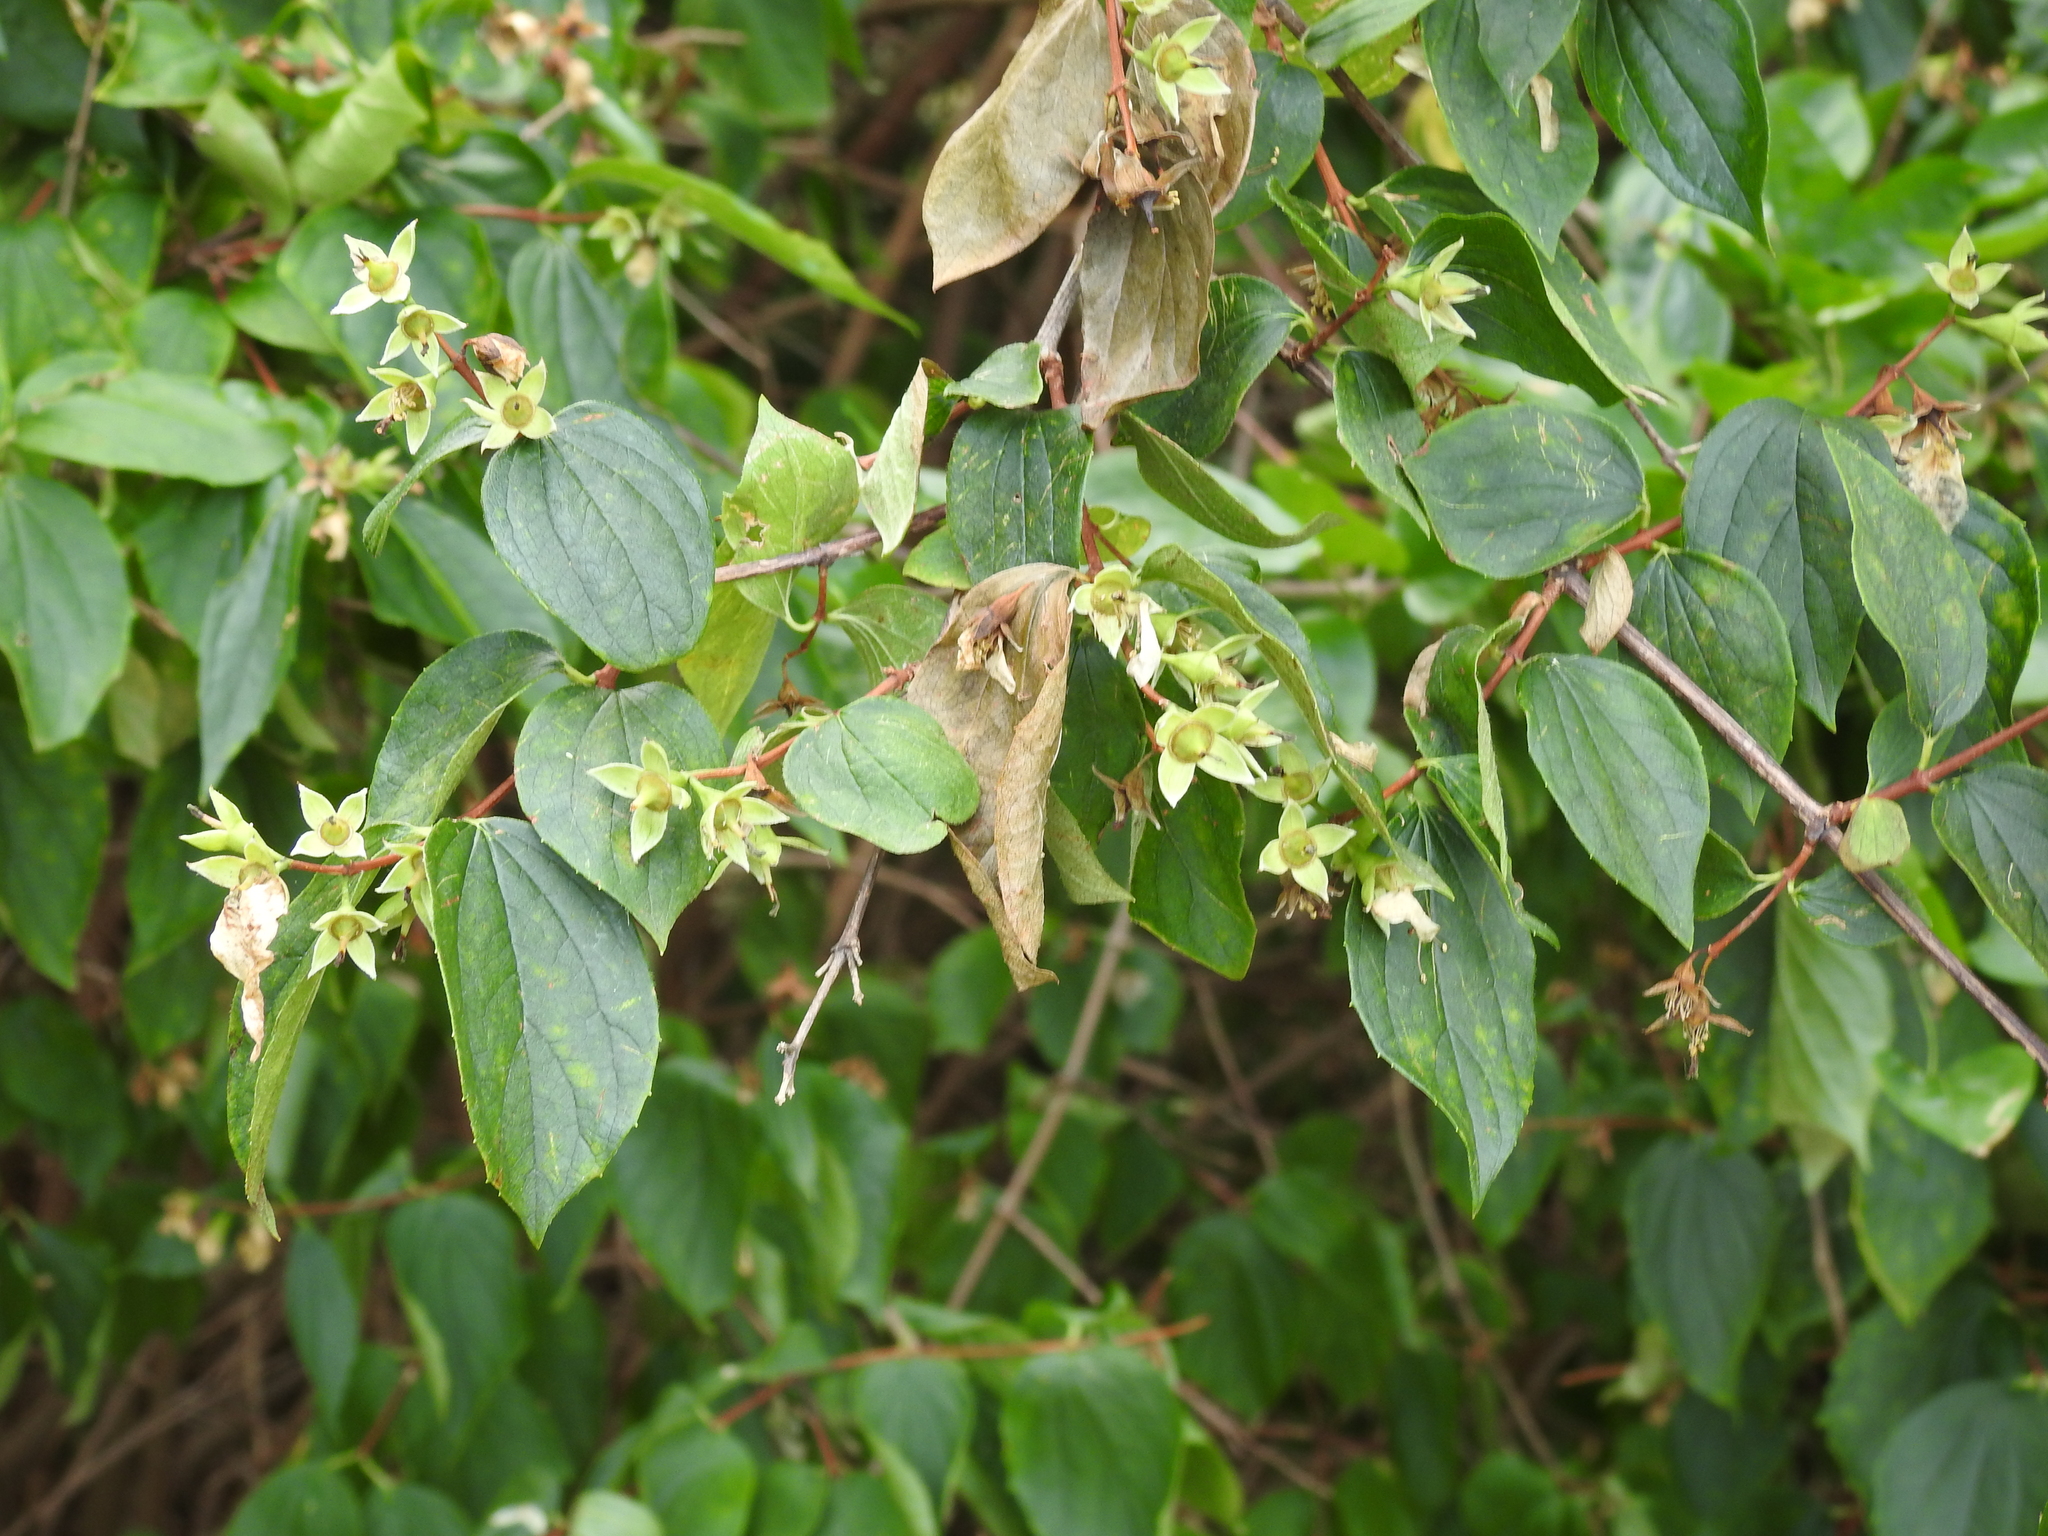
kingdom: Plantae
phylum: Tracheophyta
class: Magnoliopsida
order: Cornales
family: Hydrangeaceae
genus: Philadelphus
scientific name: Philadelphus coronarius
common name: Mock orange
